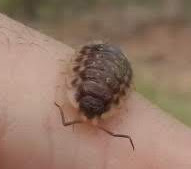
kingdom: Animalia
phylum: Arthropoda
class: Malacostraca
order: Isopoda
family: Oniscidae
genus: Oniscus
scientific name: Oniscus asellus
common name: Common shiny woodlouse
